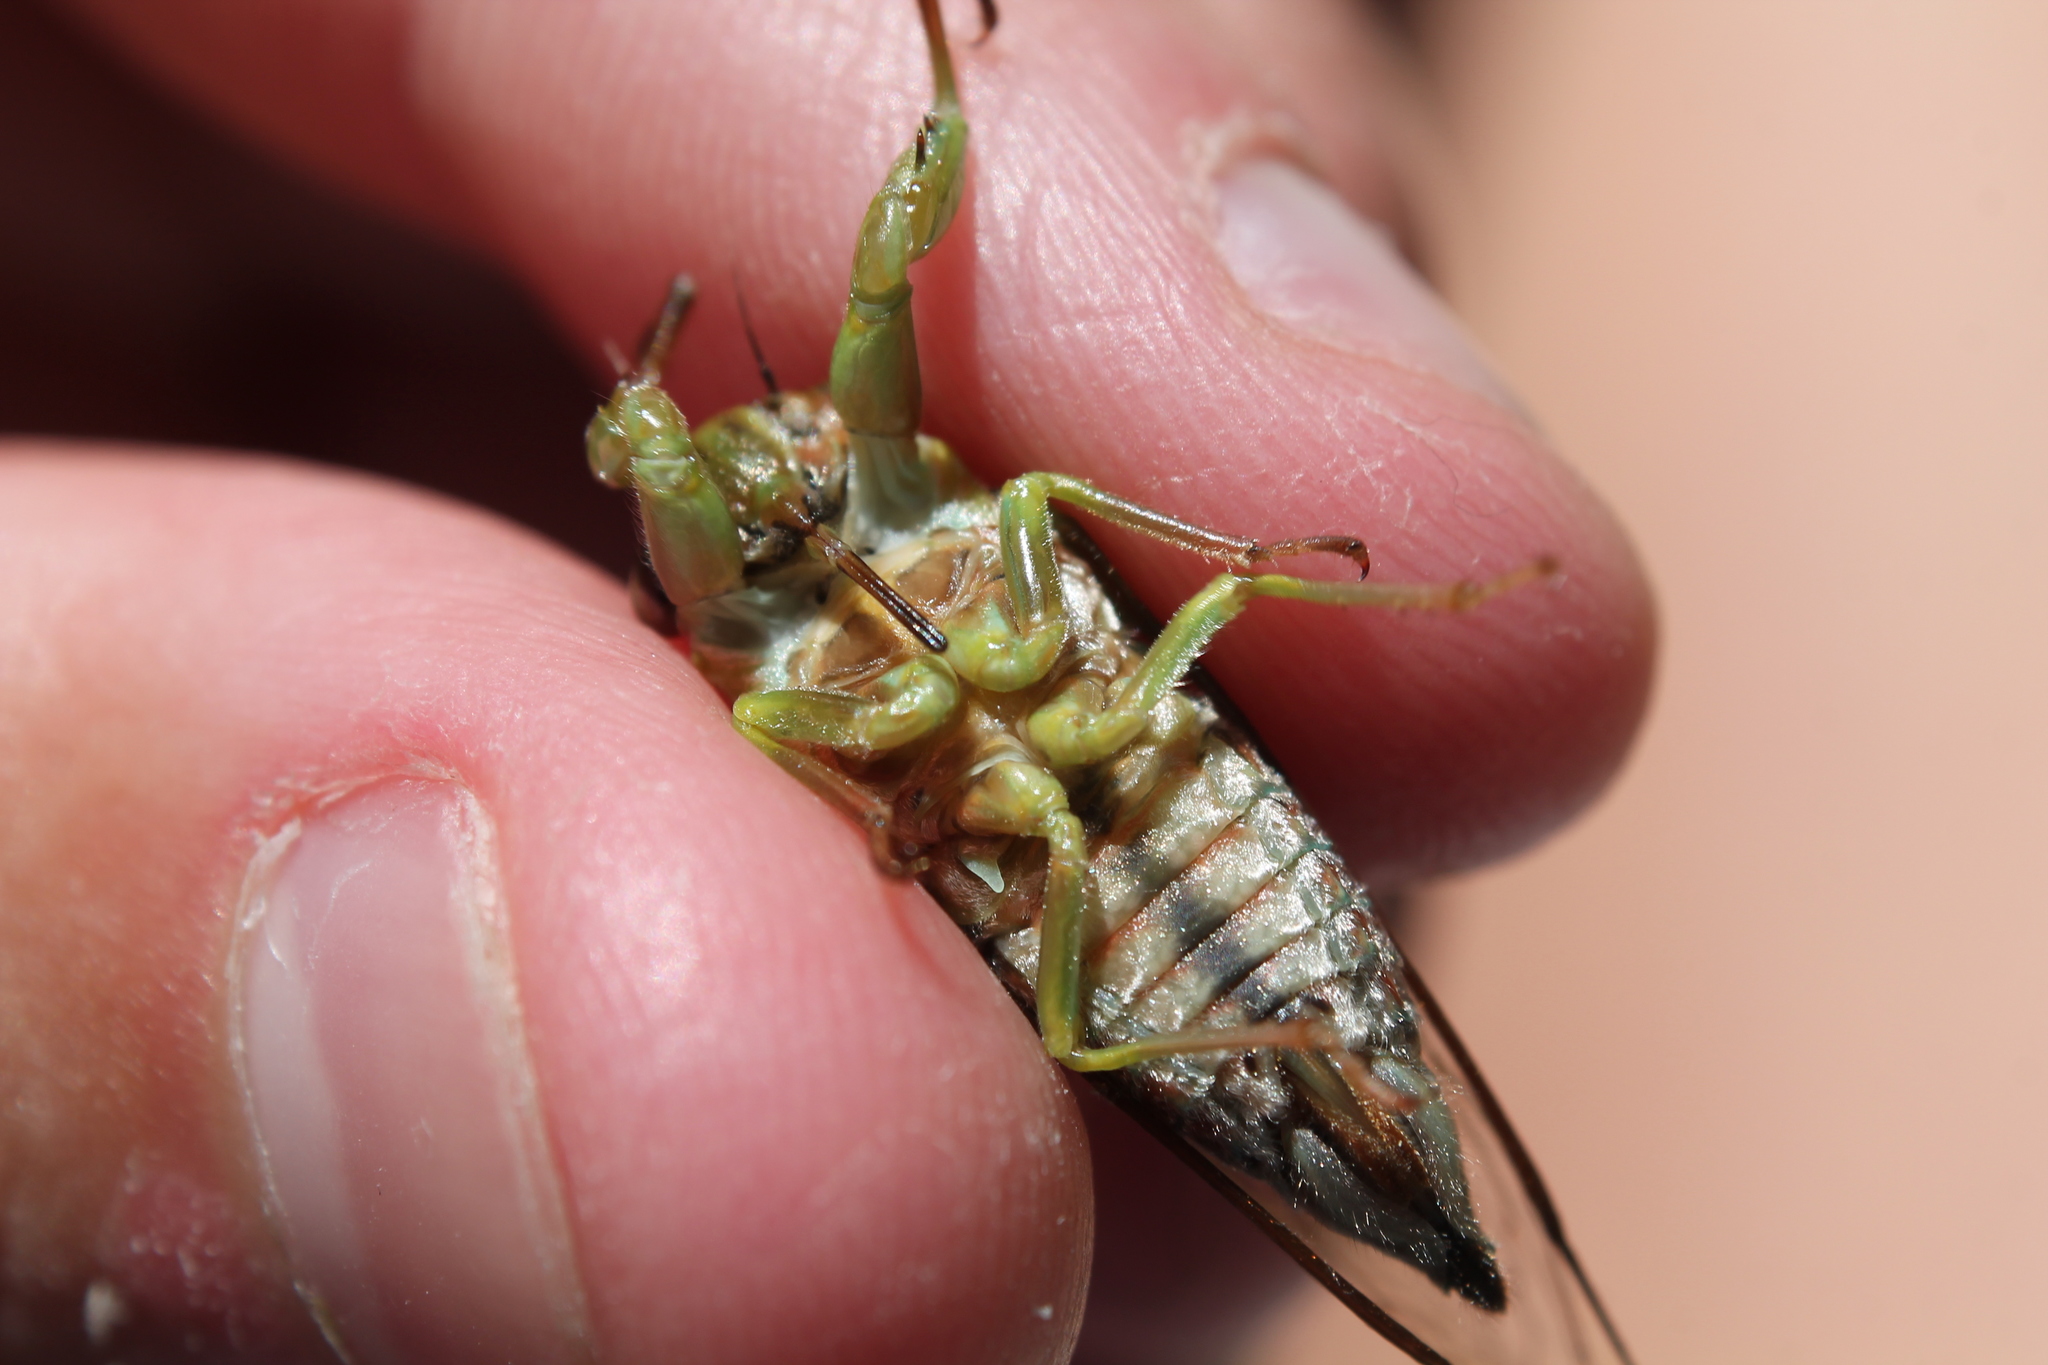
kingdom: Animalia
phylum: Arthropoda
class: Insecta
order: Hemiptera
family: Cicadidae
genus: Kikihia
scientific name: Kikihia scutellaris
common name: Lesser bronze cicada
